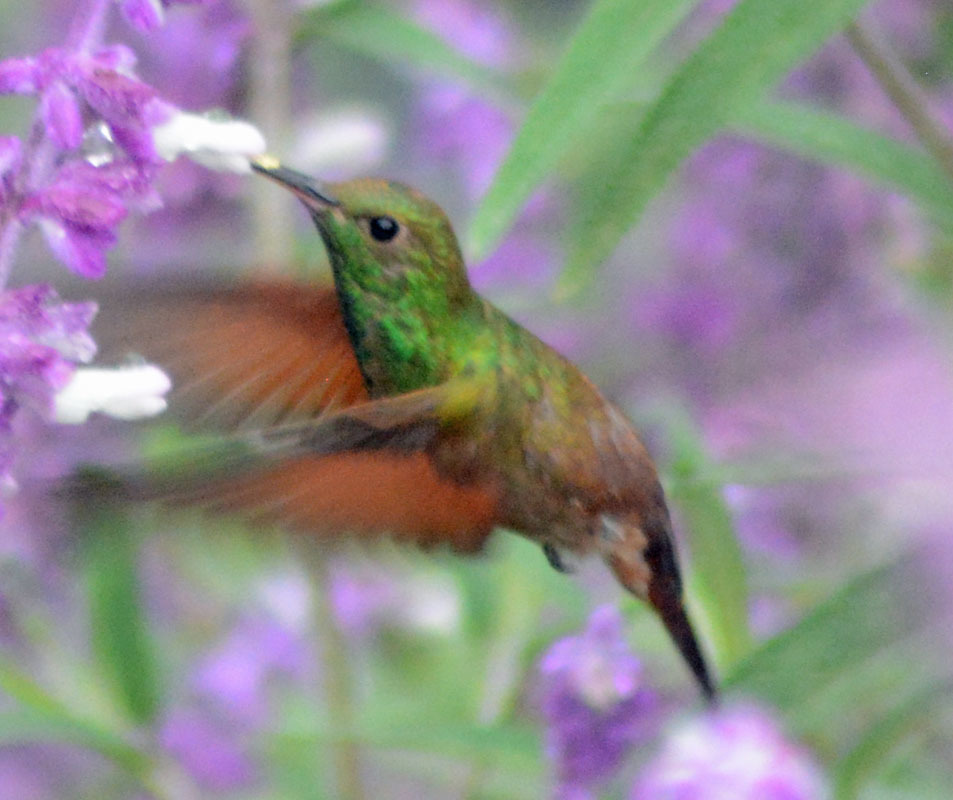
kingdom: Animalia
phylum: Chordata
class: Aves
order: Apodiformes
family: Trochilidae
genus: Saucerottia
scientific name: Saucerottia beryllina
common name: Berylline hummingbird
